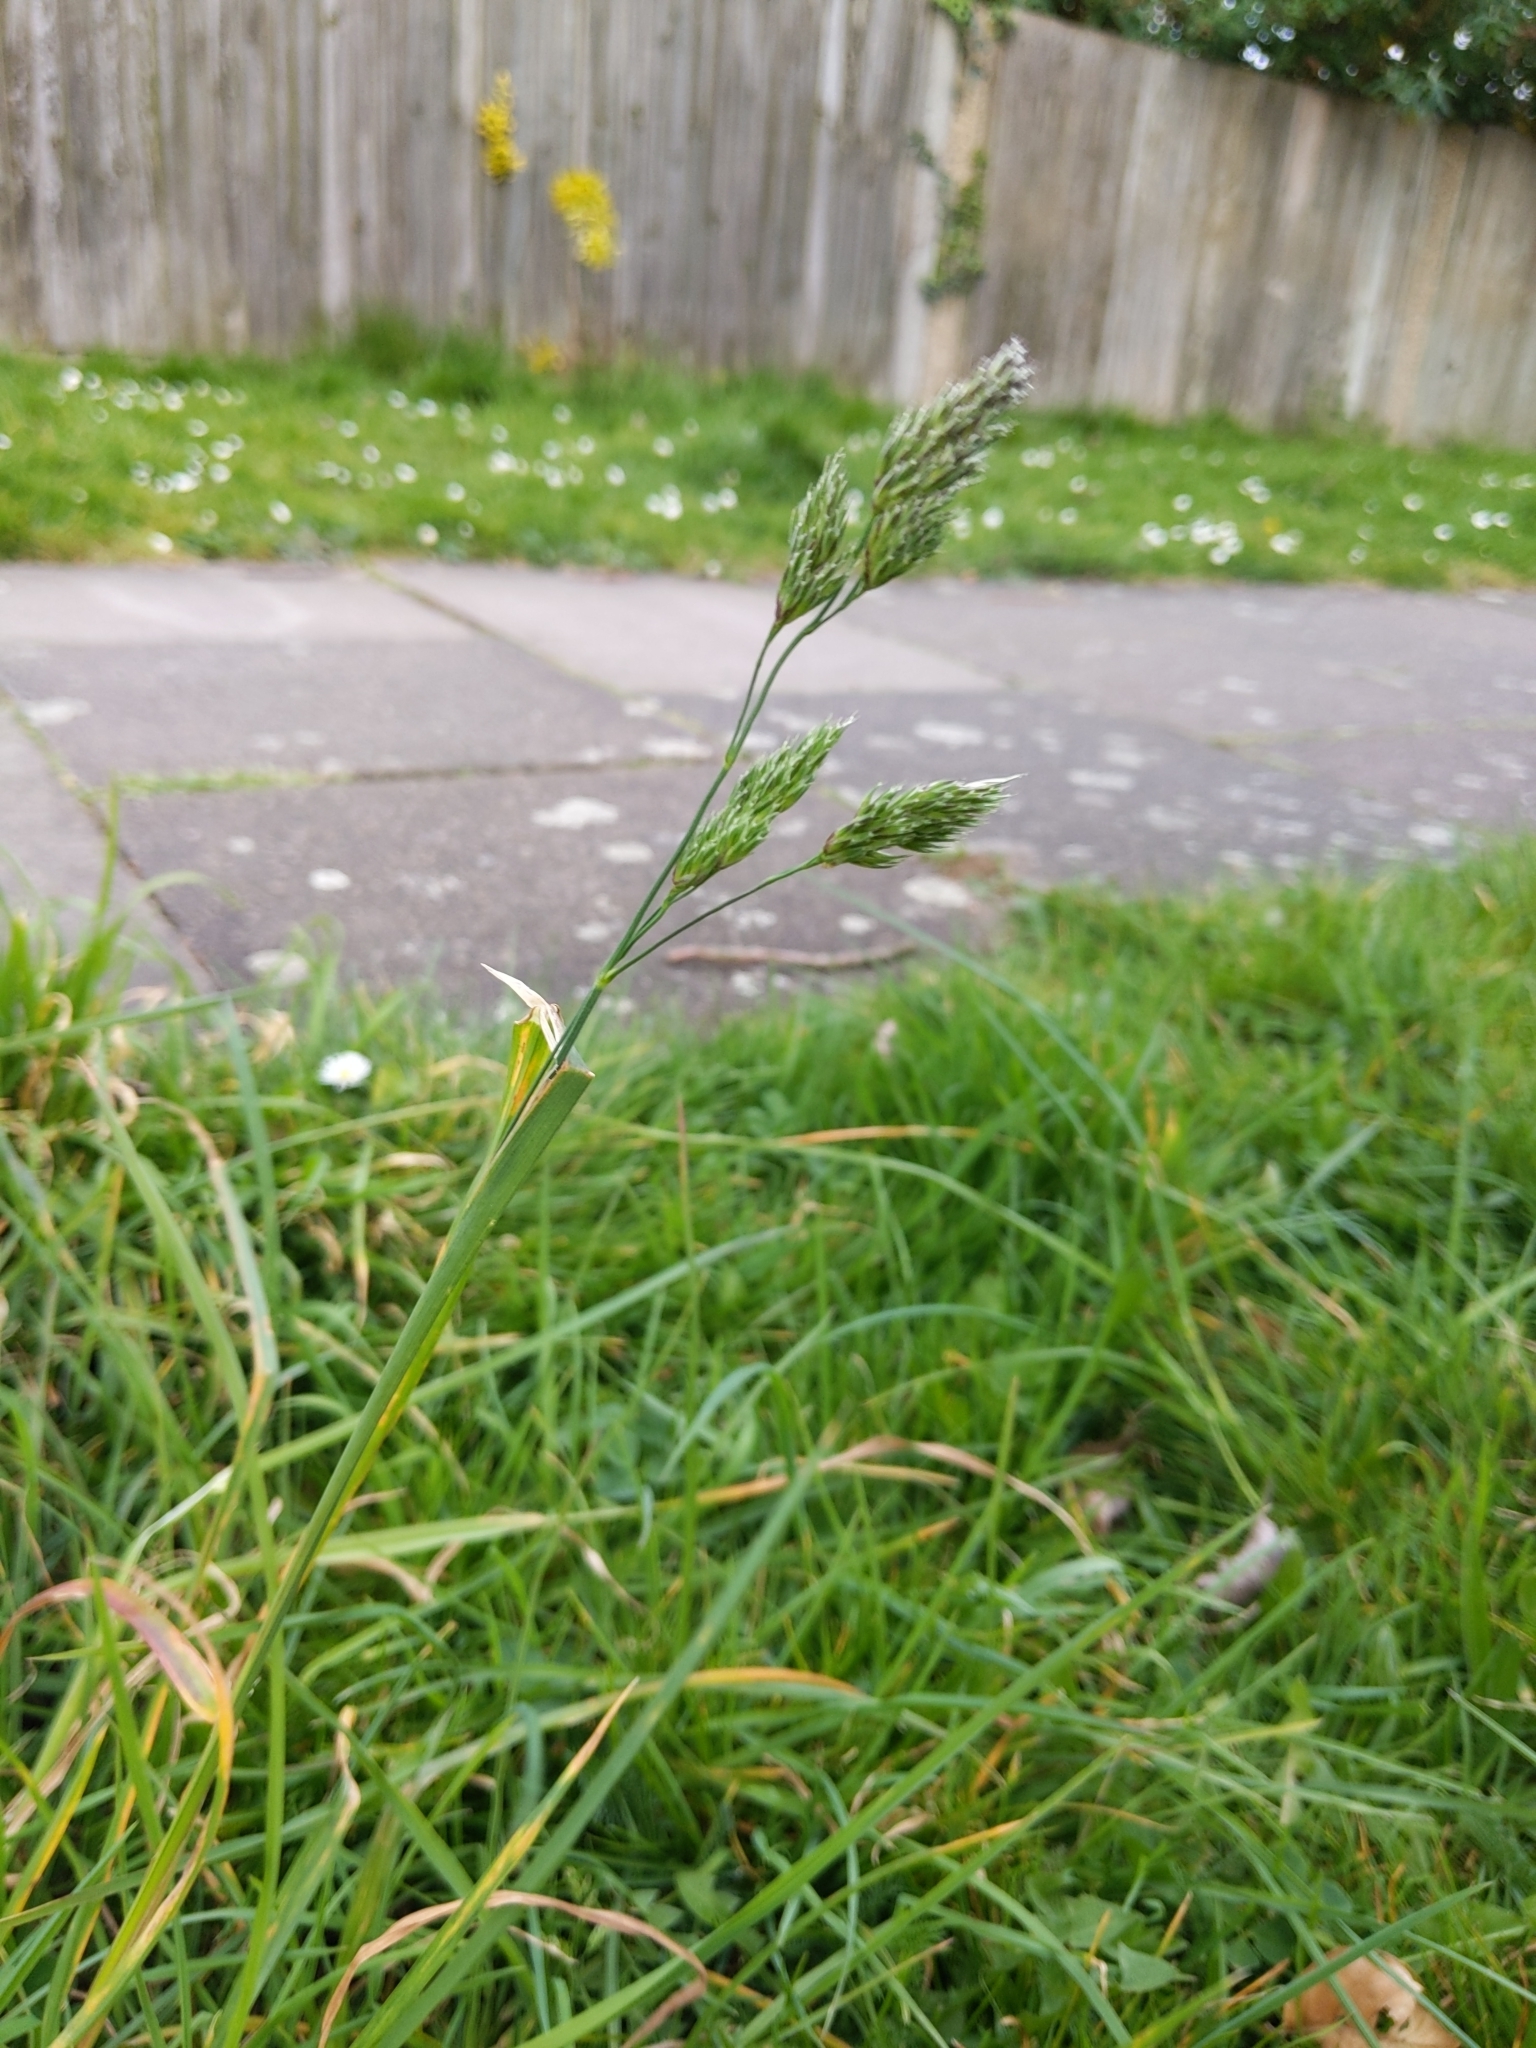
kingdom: Plantae
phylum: Tracheophyta
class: Liliopsida
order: Poales
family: Poaceae
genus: Dactylis
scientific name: Dactylis glomerata
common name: Orchardgrass
